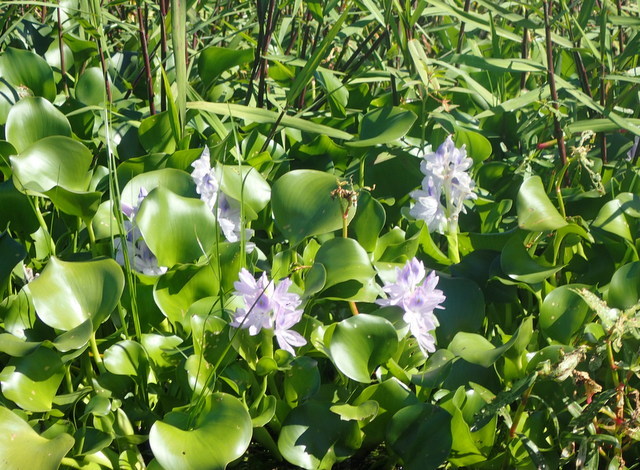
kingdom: Plantae
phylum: Tracheophyta
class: Liliopsida
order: Commelinales
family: Pontederiaceae
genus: Pontederia
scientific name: Pontederia crassipes
